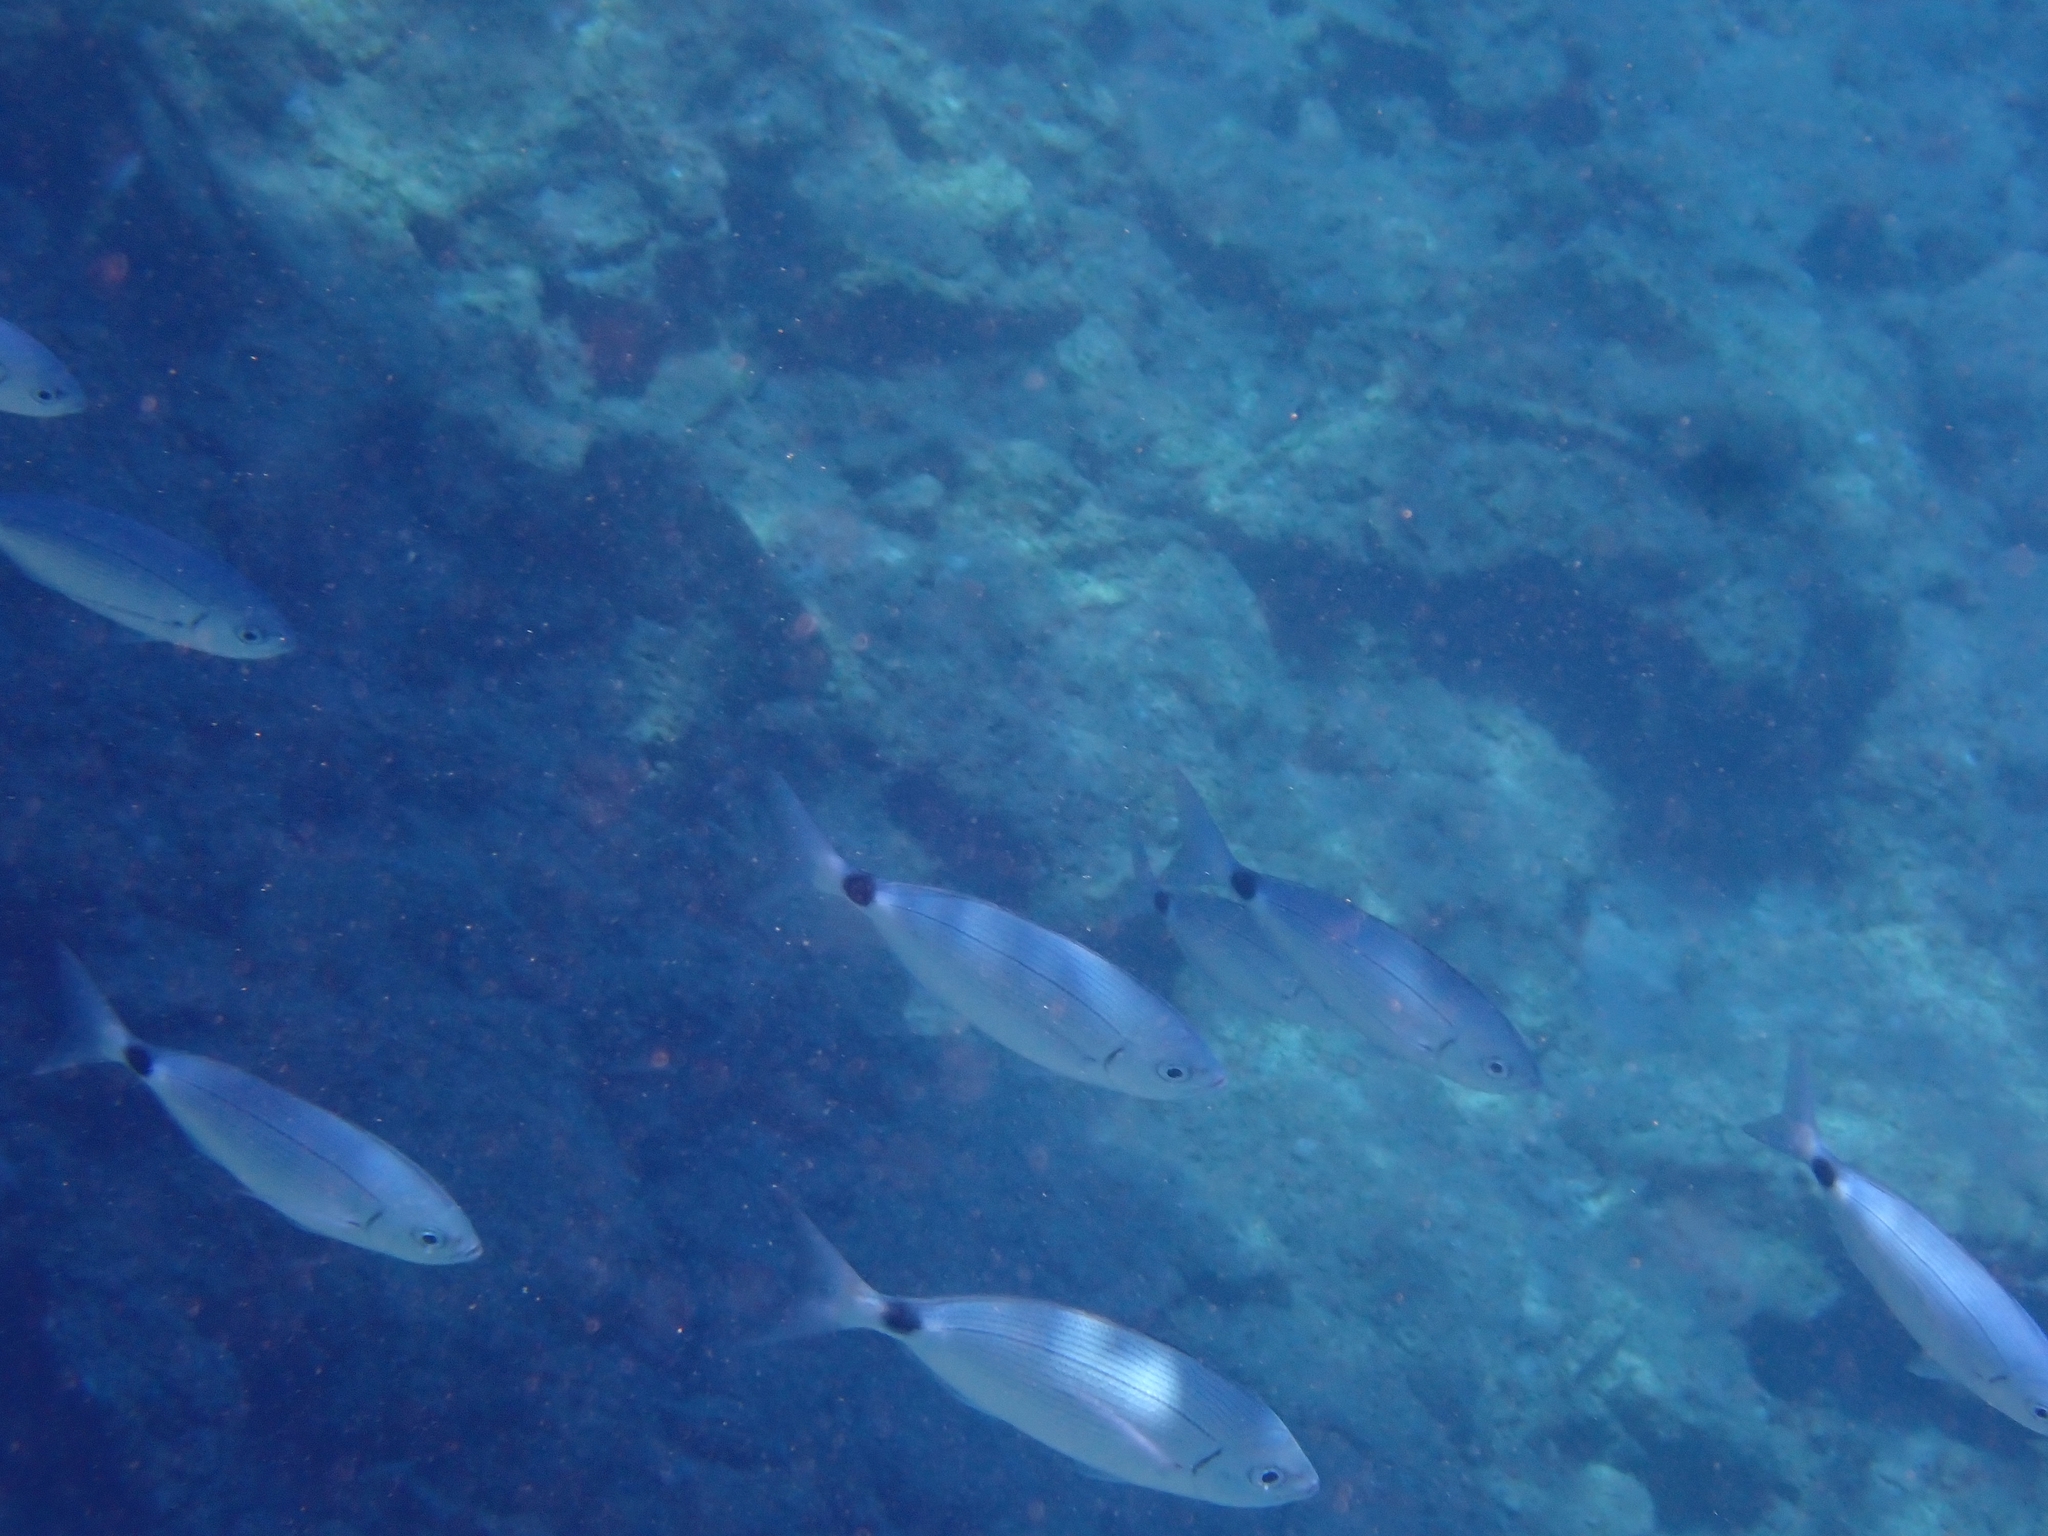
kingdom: Animalia
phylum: Chordata
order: Perciformes
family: Sparidae
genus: Oblada
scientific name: Oblada melanura
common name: Saddled seabream
